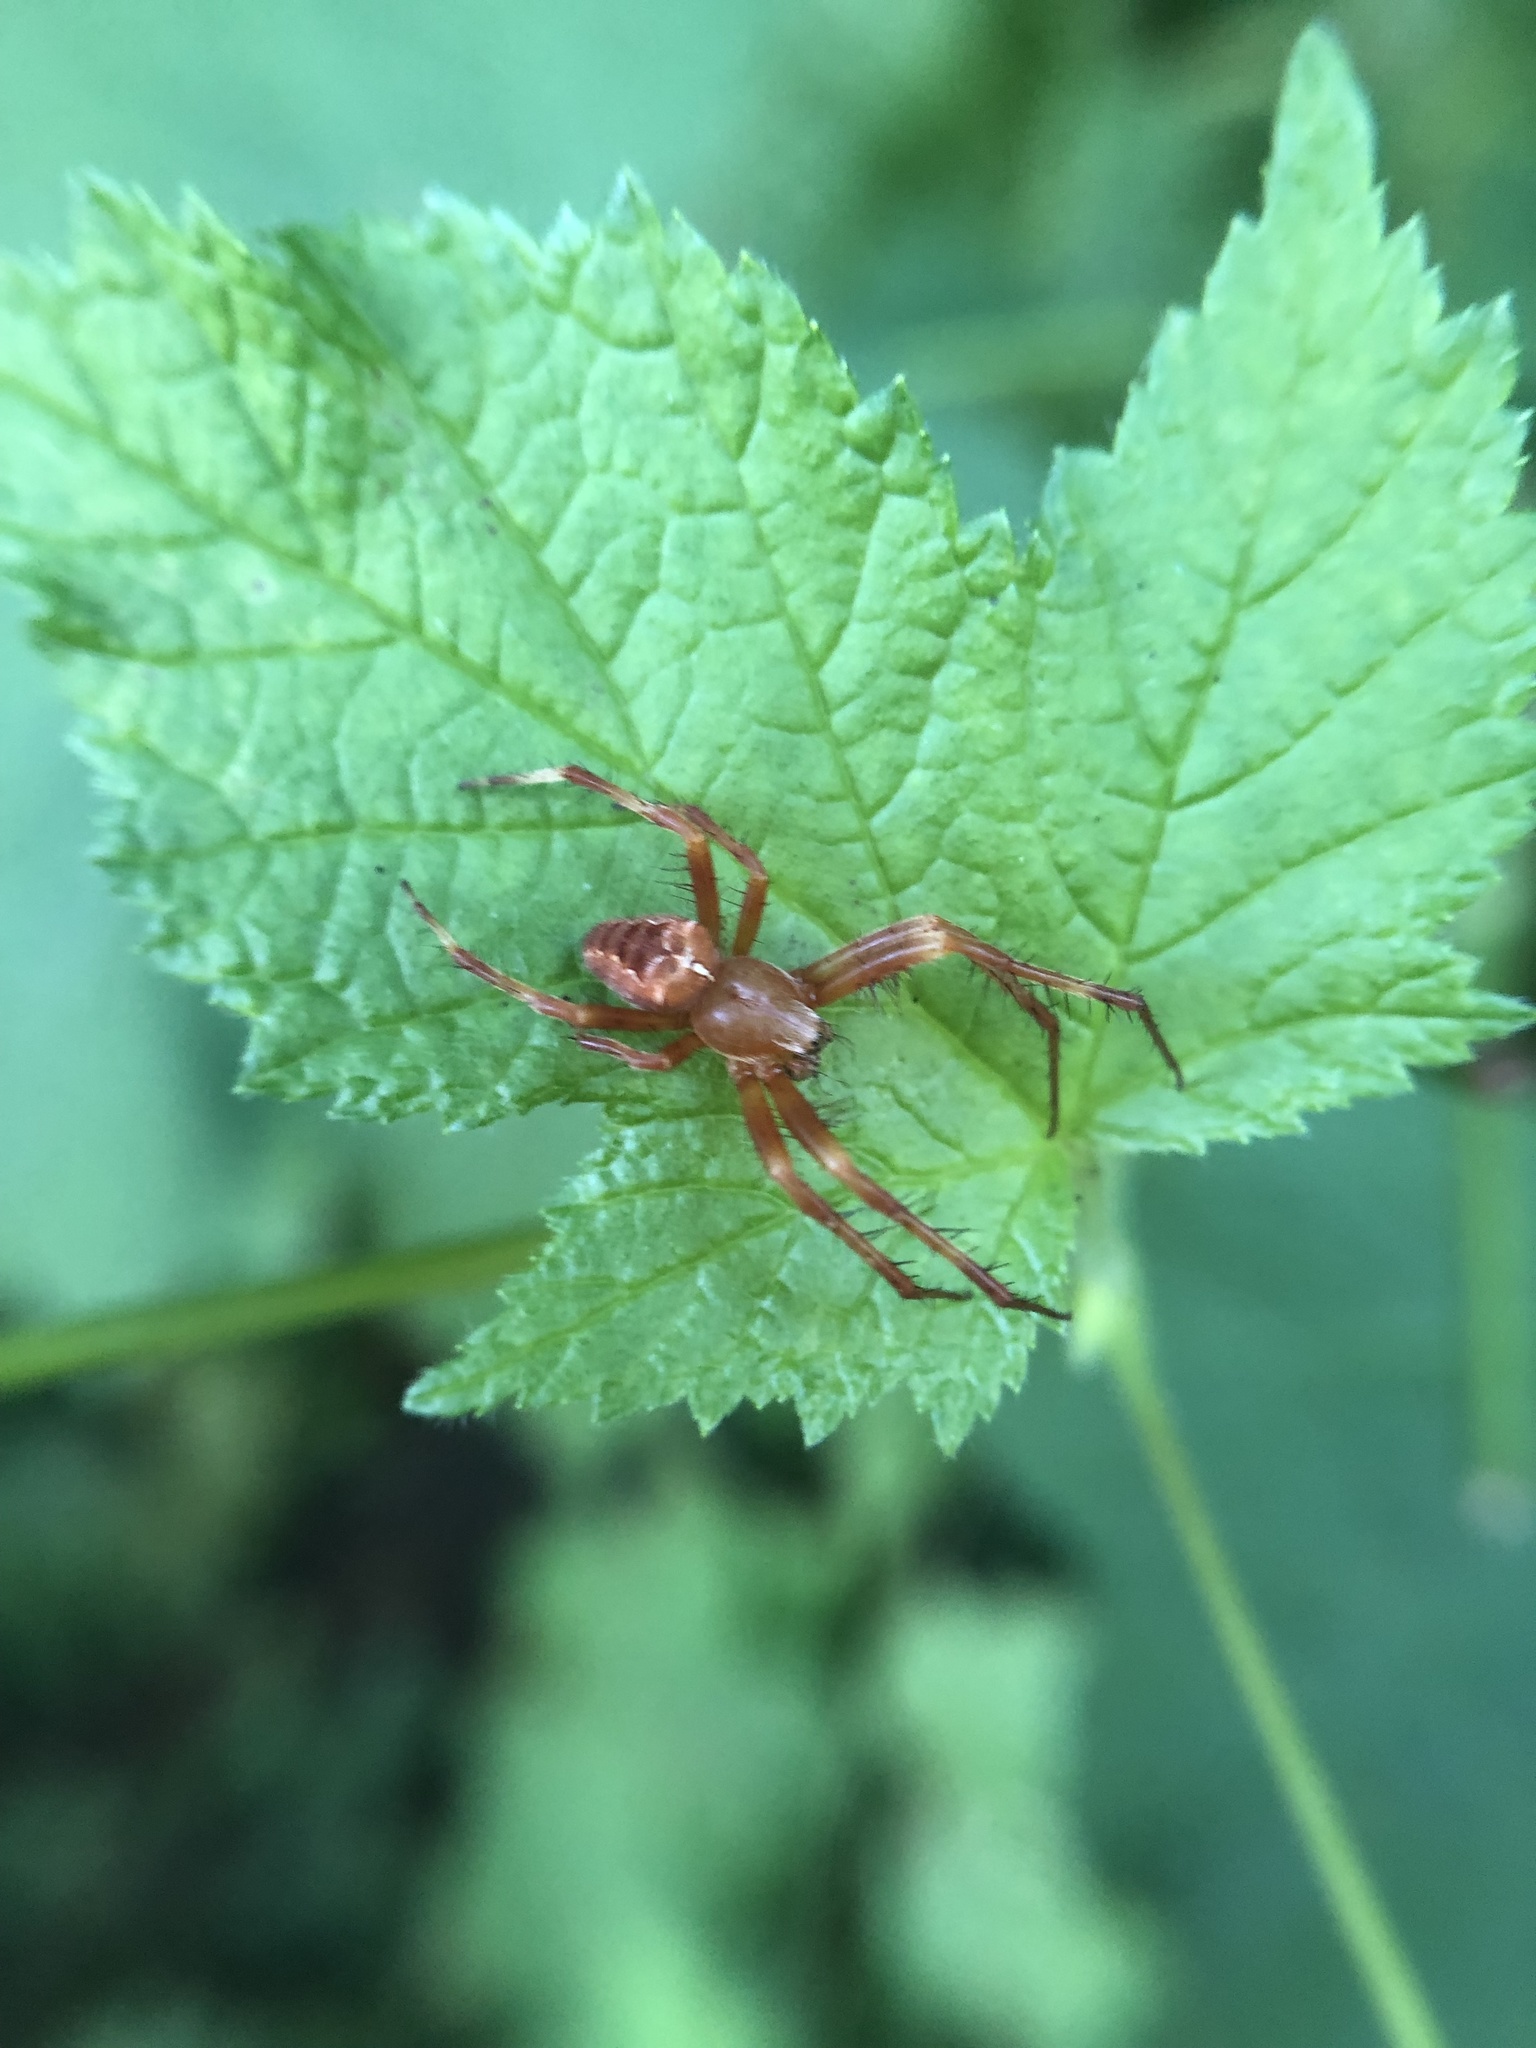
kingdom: Animalia
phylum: Arthropoda
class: Arachnida
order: Araneae
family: Araneidae
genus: Araneus
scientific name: Araneus diadematus
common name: Cross orbweaver
